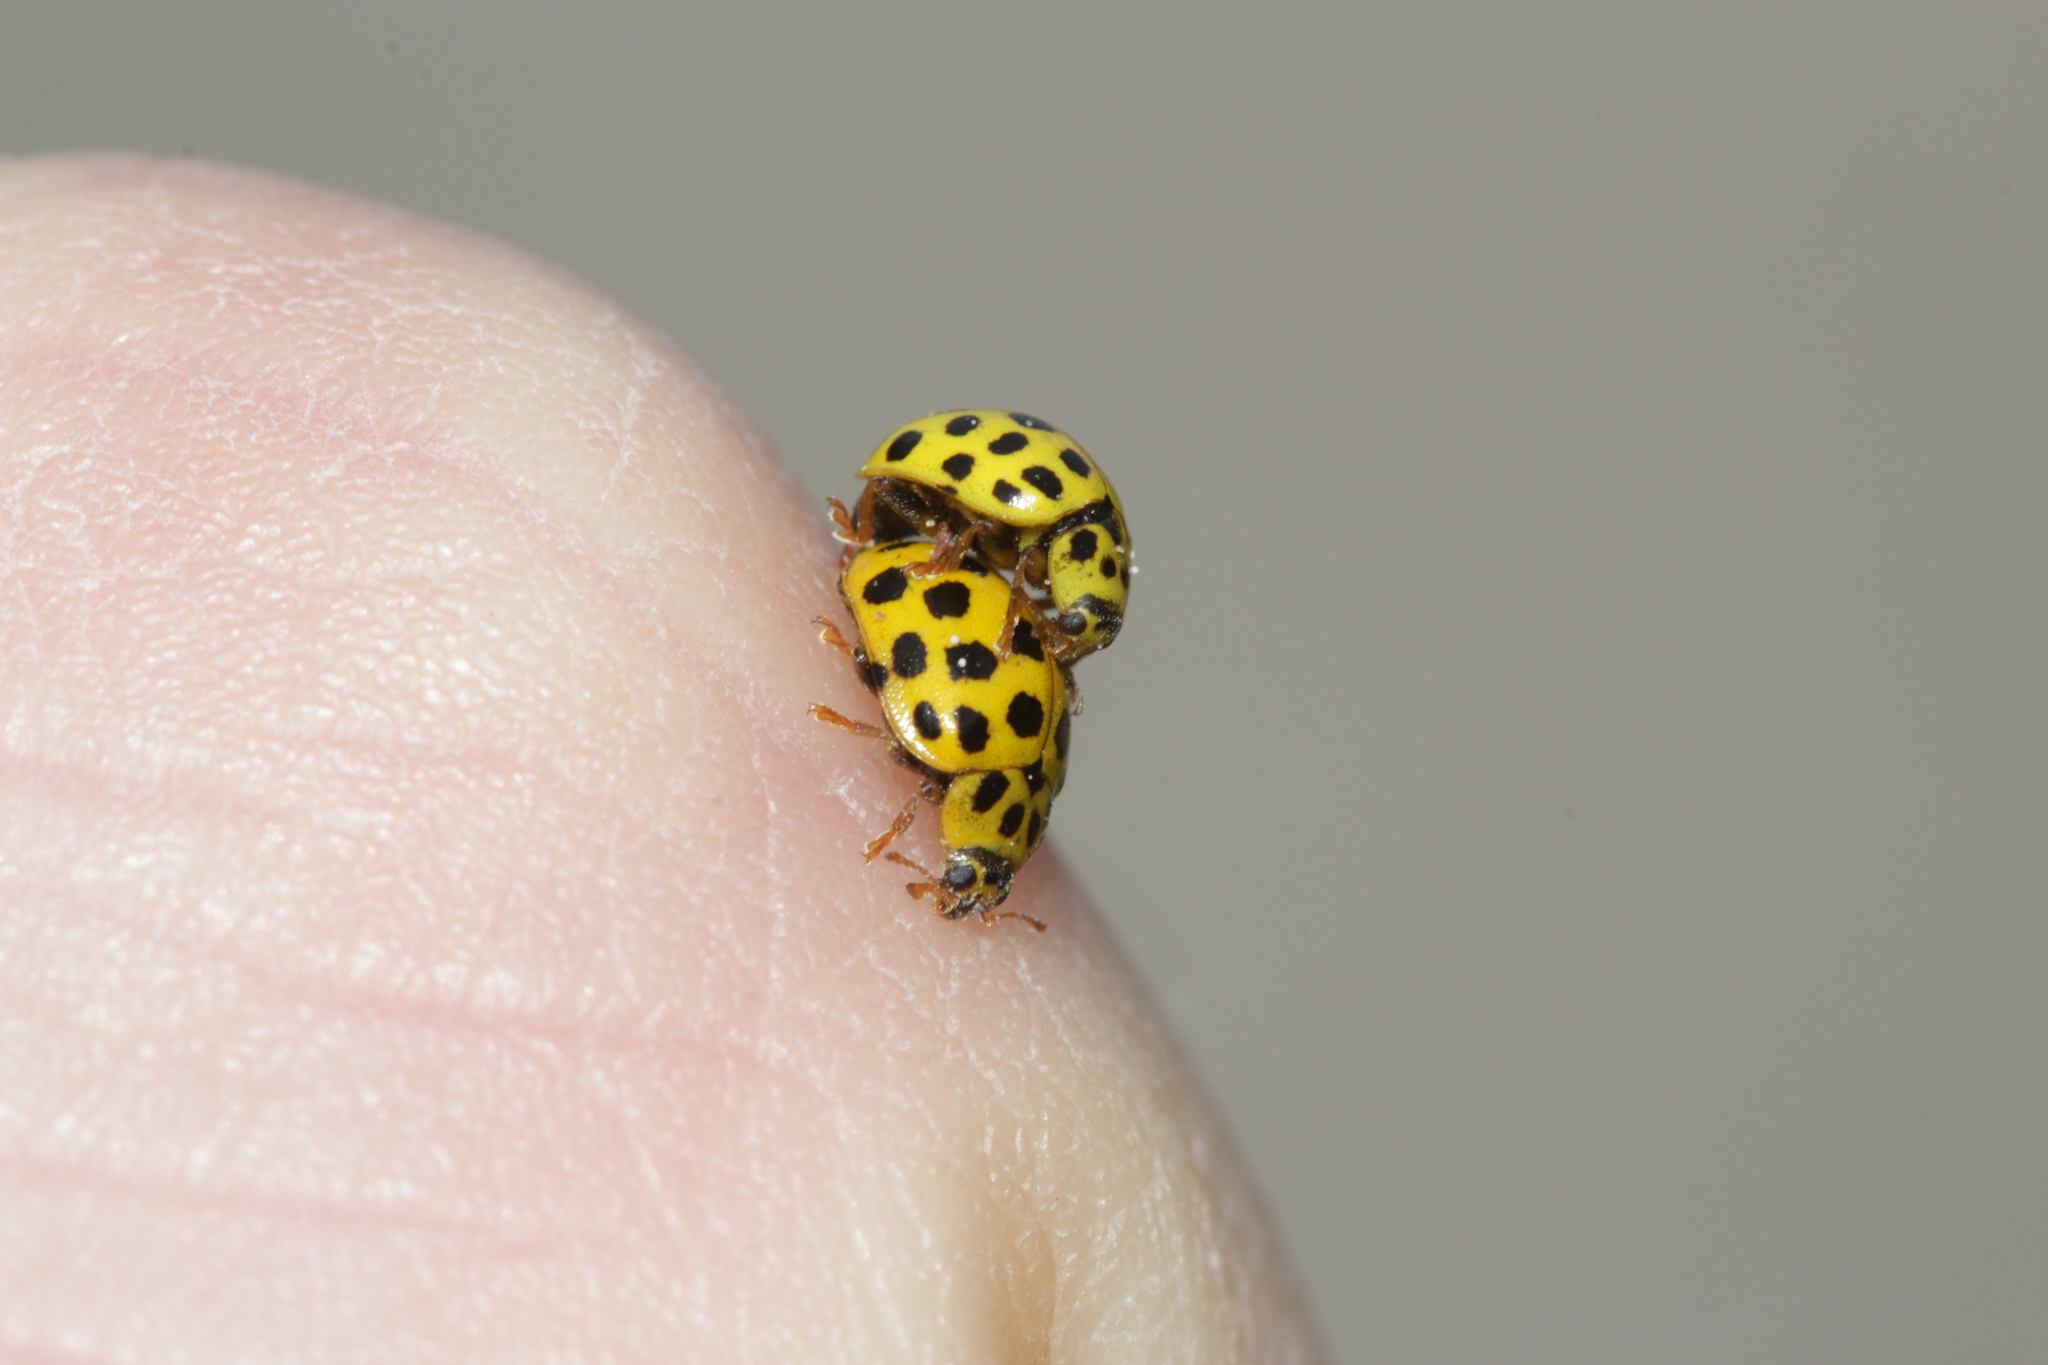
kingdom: Animalia
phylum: Arthropoda
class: Insecta
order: Coleoptera
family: Coccinellidae
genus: Psyllobora
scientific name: Psyllobora vigintiduopunctata
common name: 22-spot ladybird
